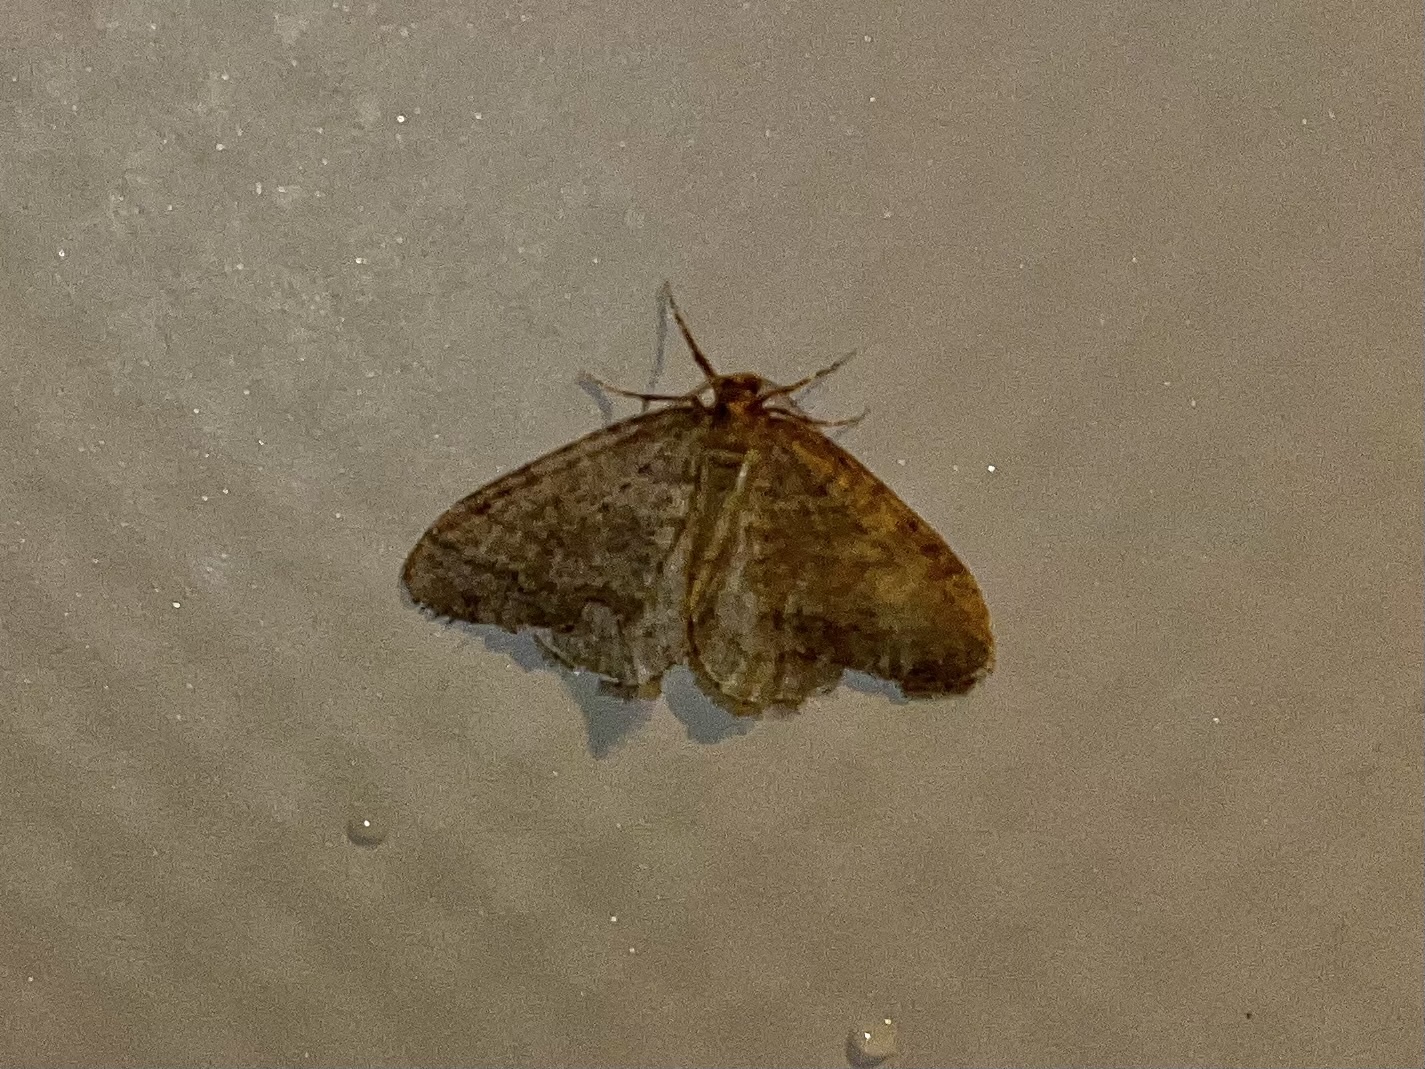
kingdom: Animalia
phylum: Arthropoda
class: Insecta
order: Lepidoptera
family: Geometridae
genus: Operophtera
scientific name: Operophtera brumata
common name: Winter moth
